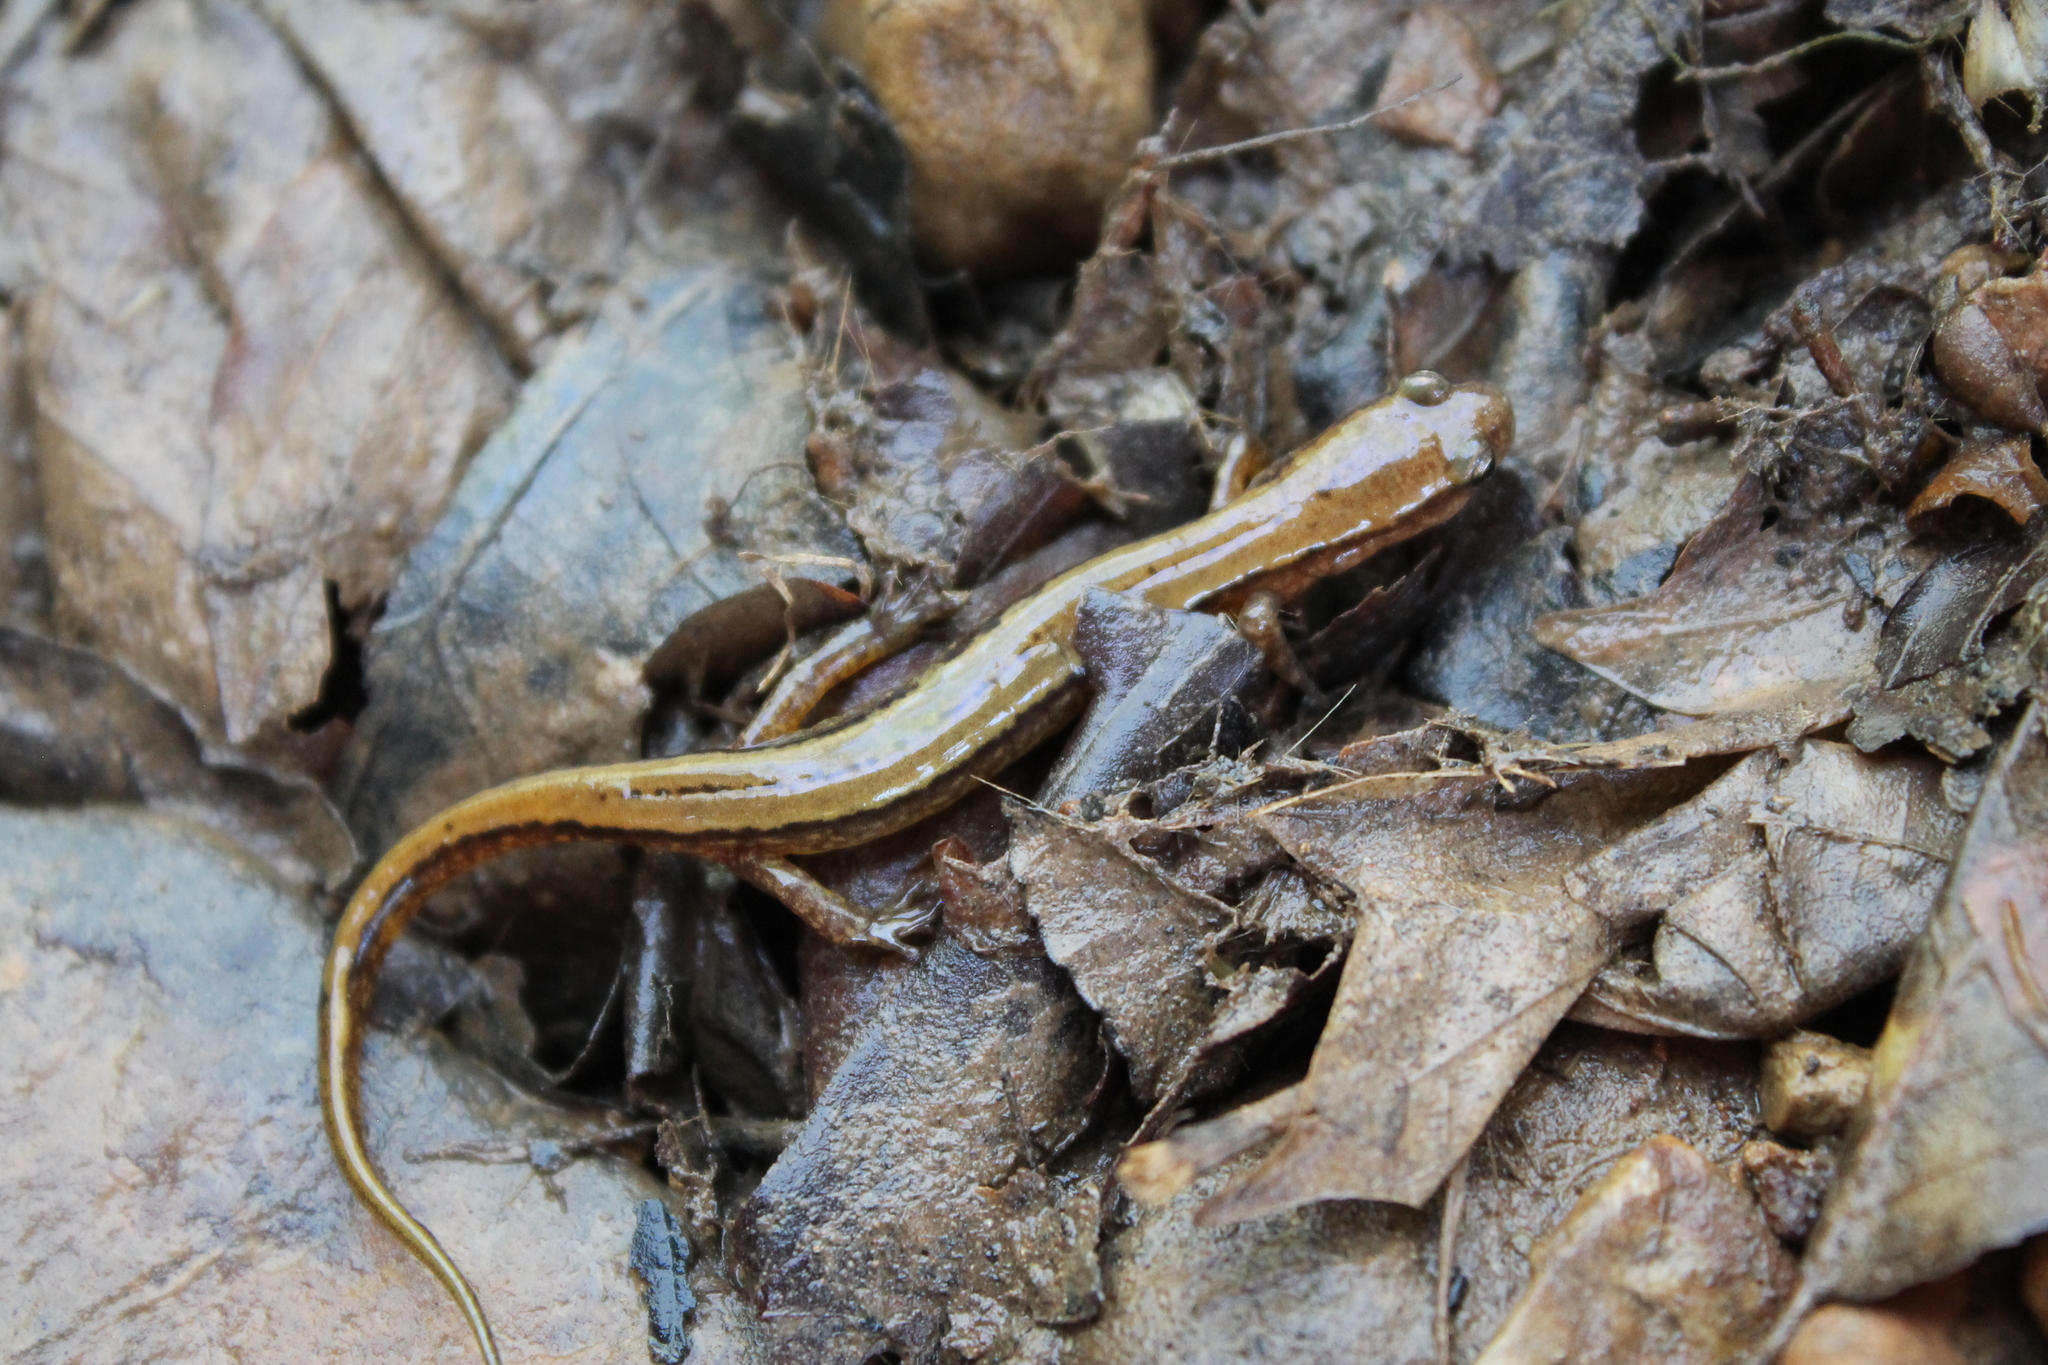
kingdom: Animalia
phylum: Chordata
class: Amphibia
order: Caudata
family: Plethodontidae
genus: Eurycea
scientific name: Eurycea cirrigera
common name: Southern two-lined salamander
